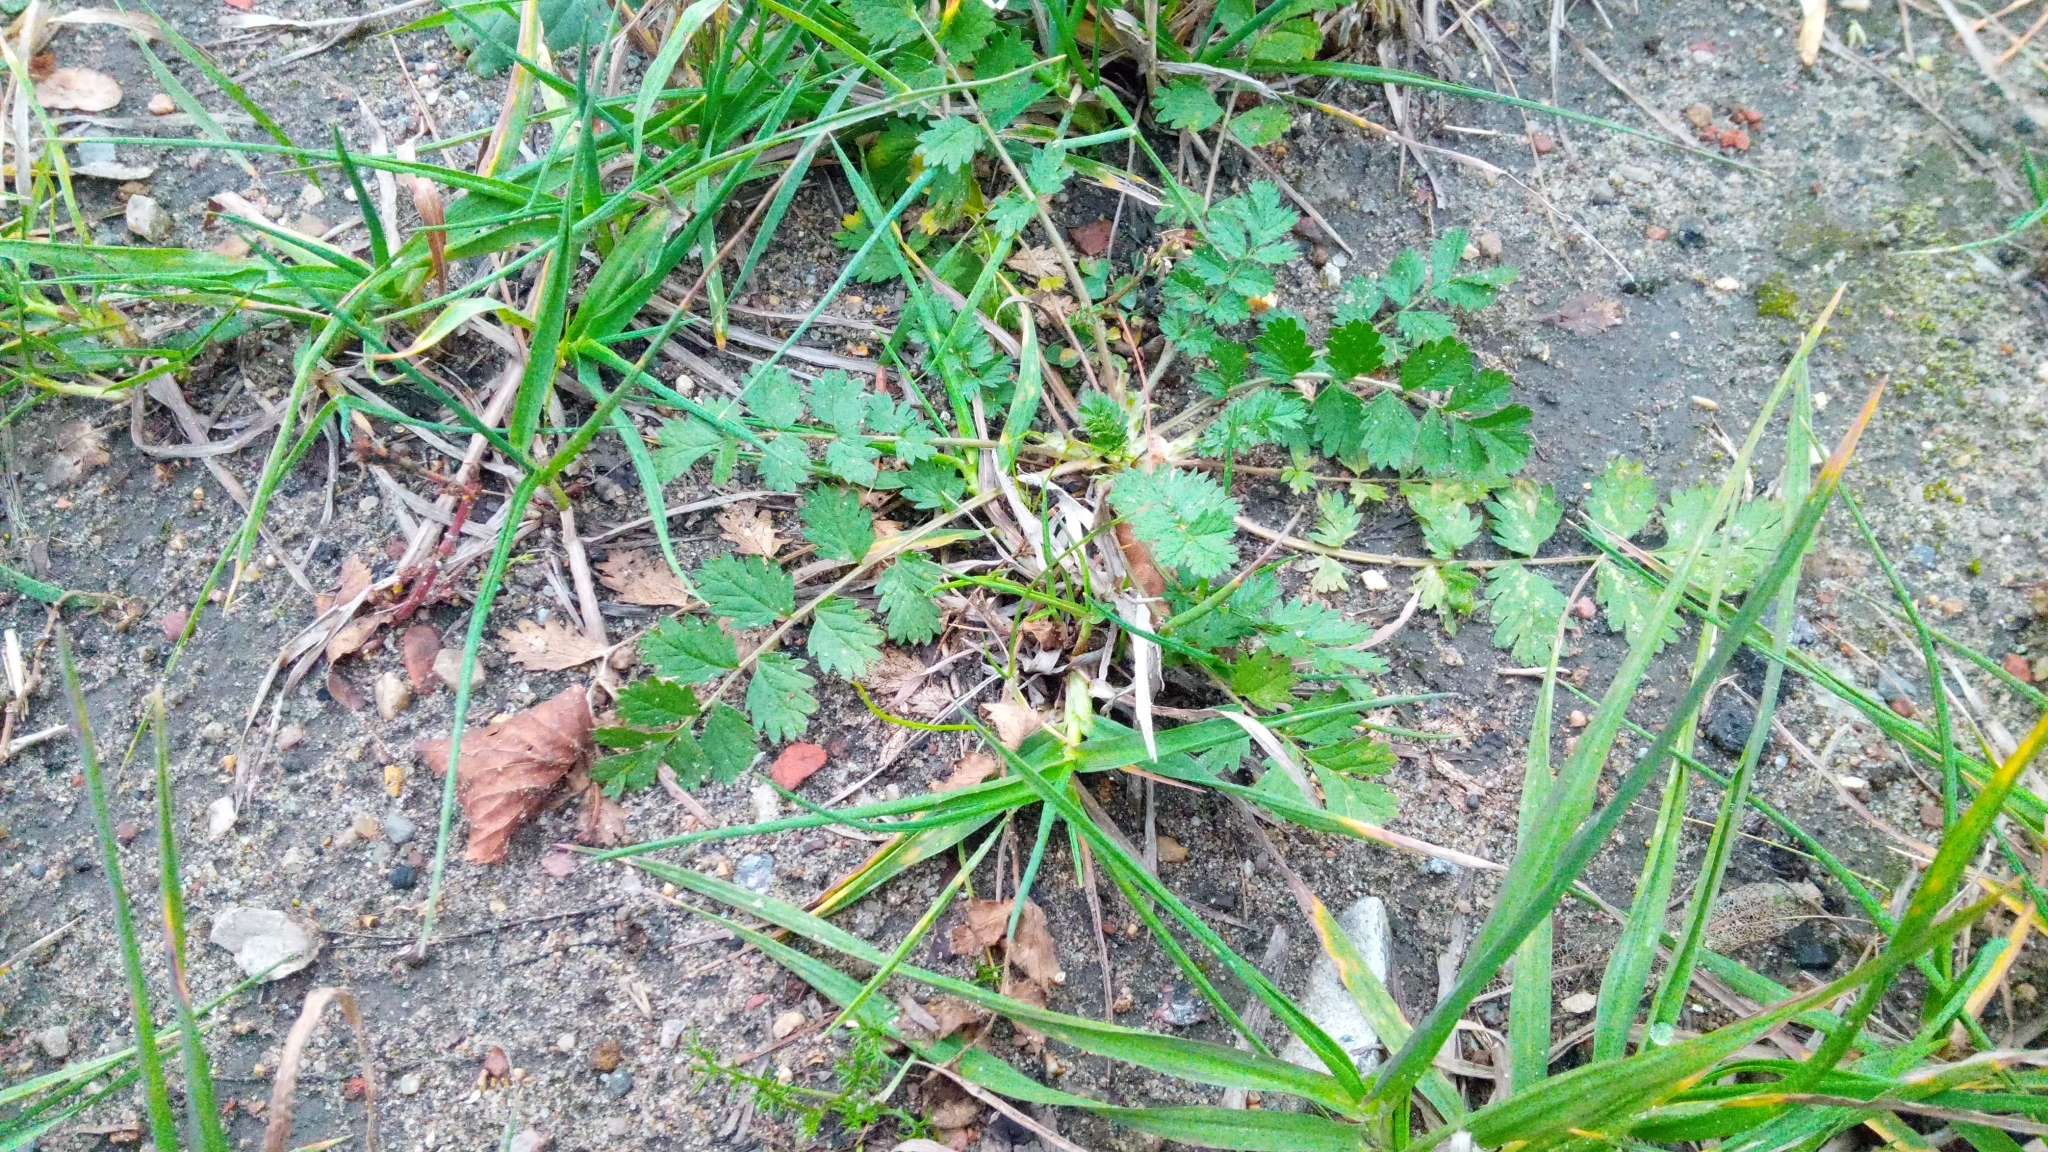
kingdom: Plantae
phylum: Tracheophyta
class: Magnoliopsida
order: Rosales
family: Rosaceae
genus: Potentilla
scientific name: Potentilla supina
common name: Prostrate cinquefoil
